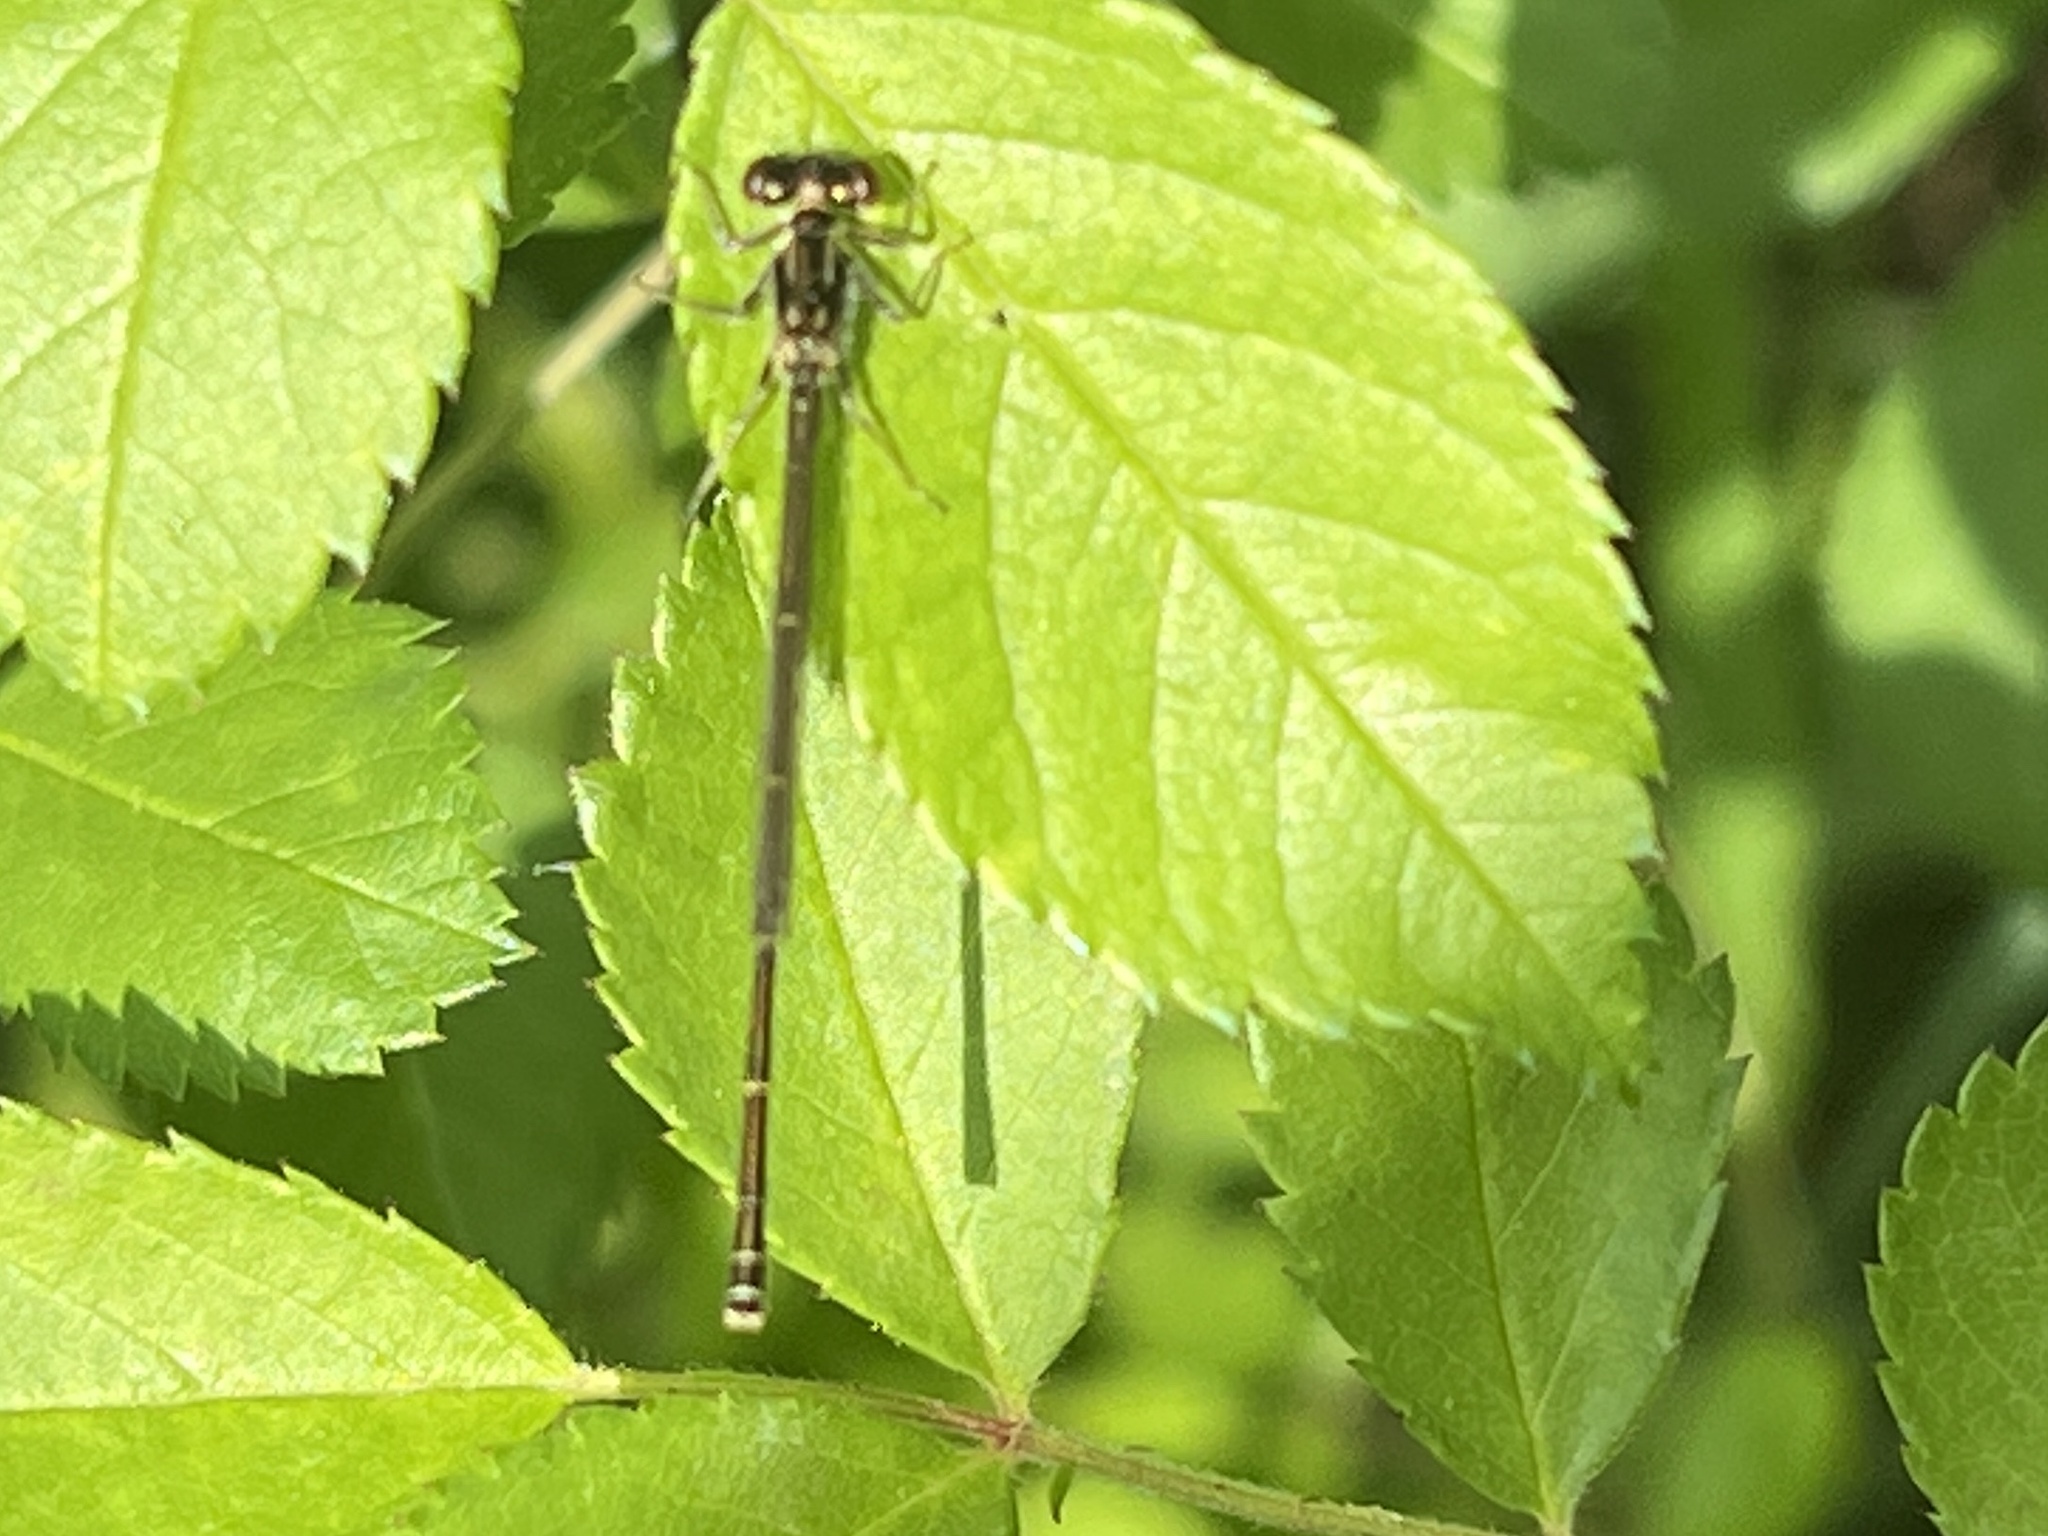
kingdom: Animalia
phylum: Arthropoda
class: Insecta
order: Odonata
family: Coenagrionidae
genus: Ischnura
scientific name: Ischnura posita
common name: Fragile forktail
